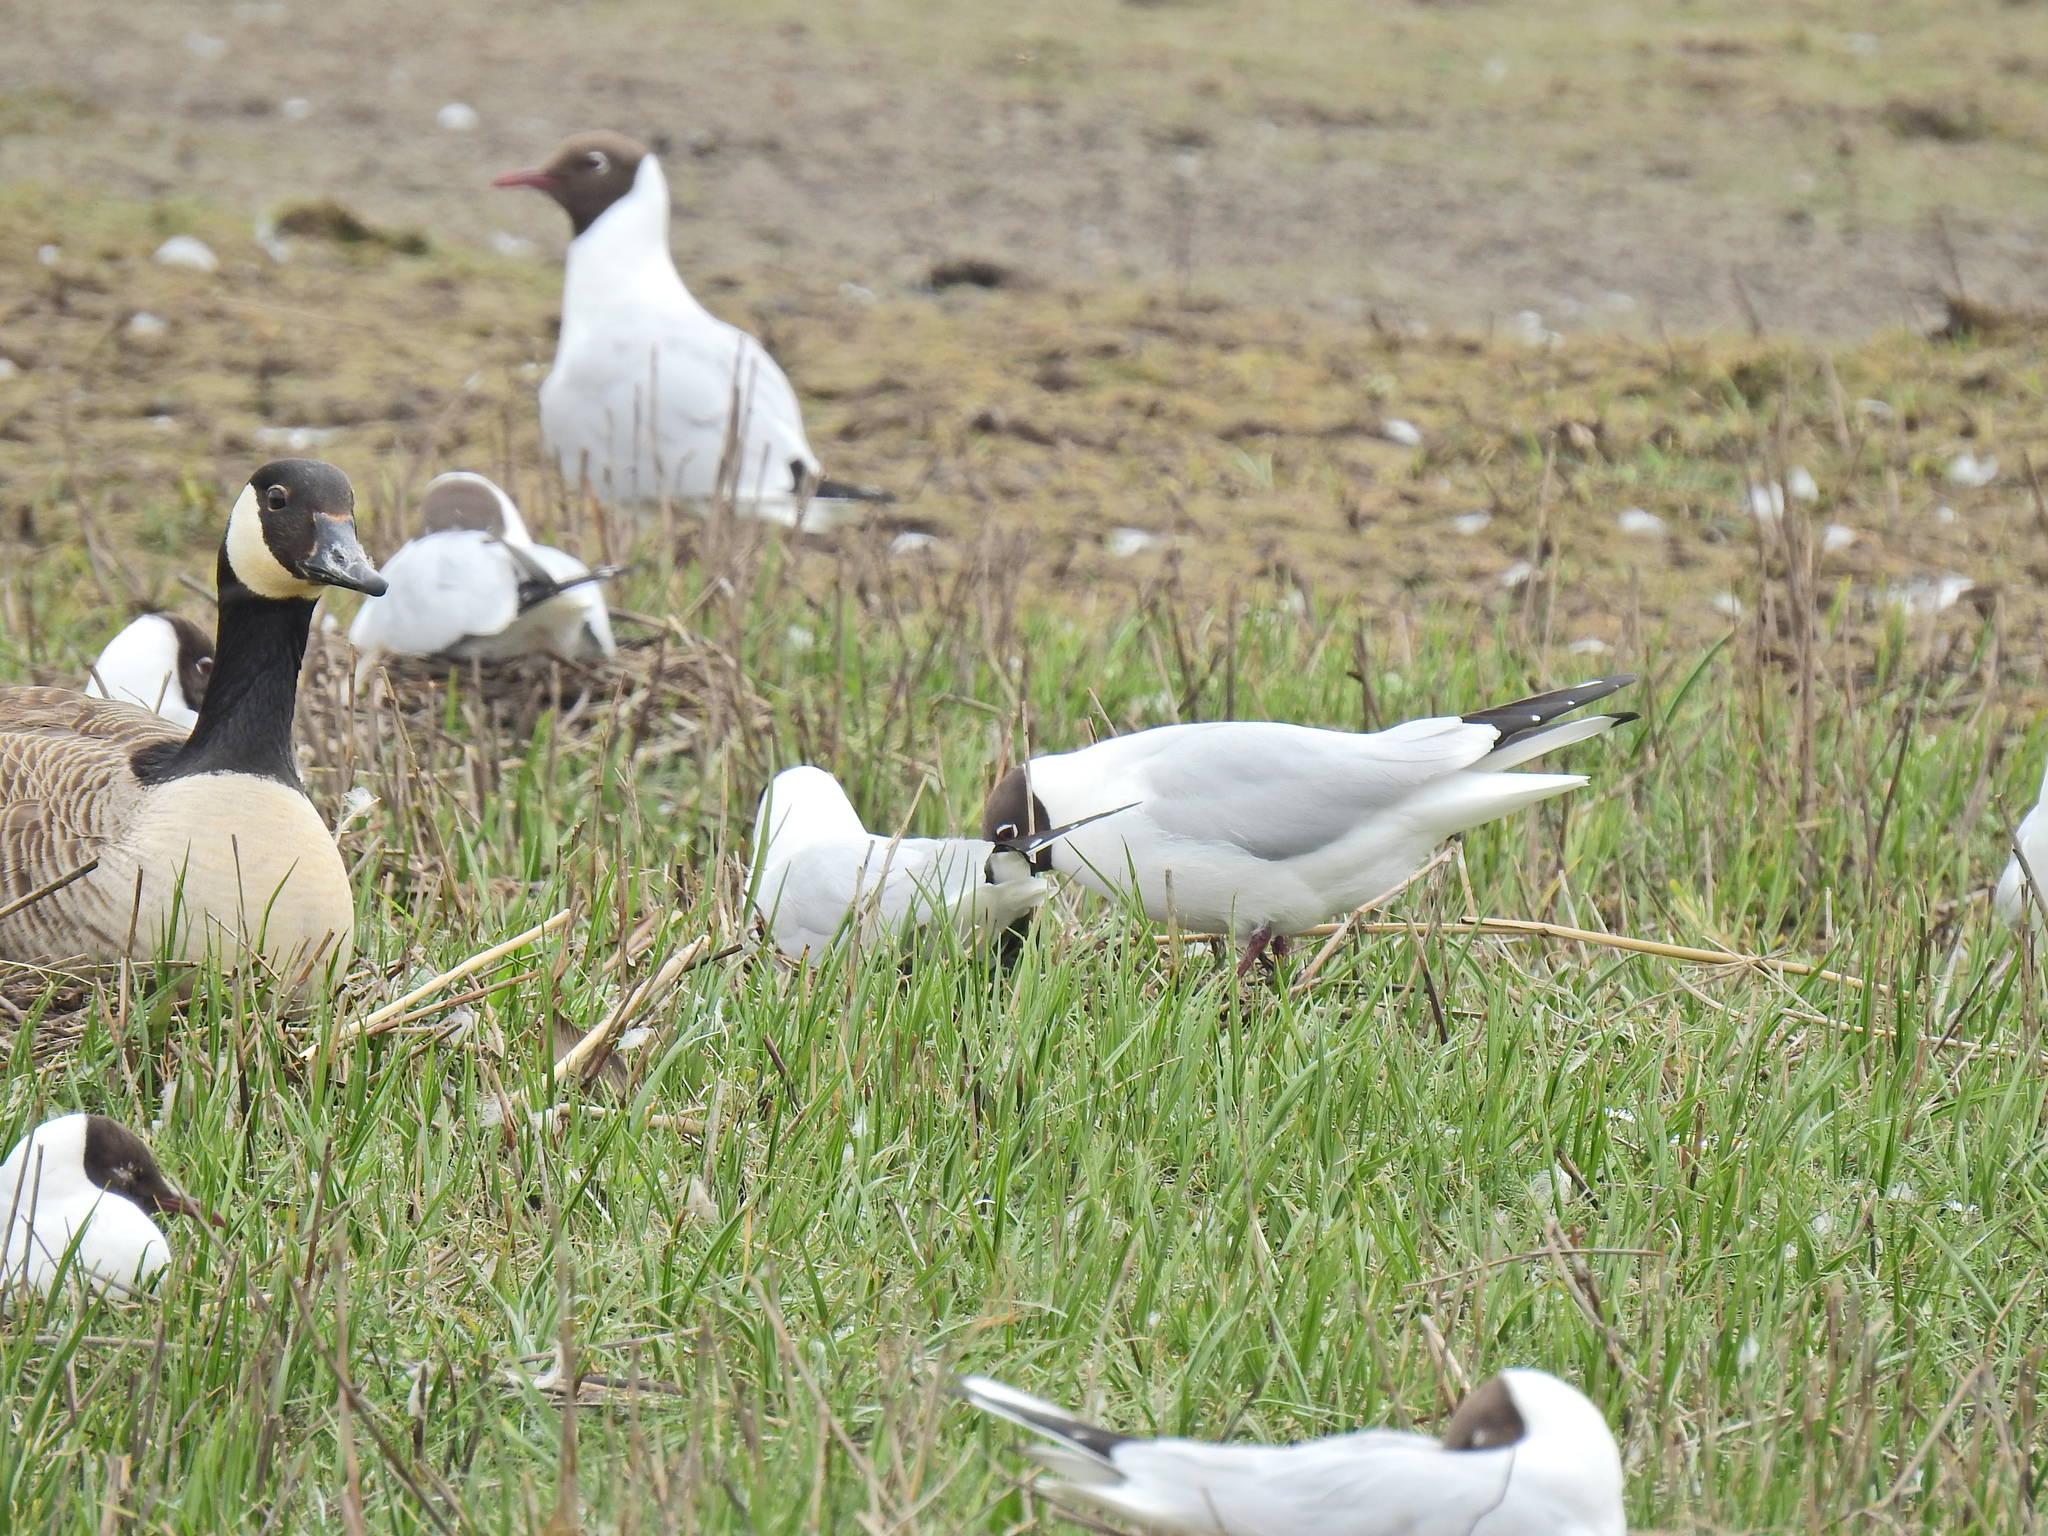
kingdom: Animalia
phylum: Chordata
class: Aves
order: Charadriiformes
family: Laridae
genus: Chroicocephalus
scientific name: Chroicocephalus ridibundus
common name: Black-headed gull
